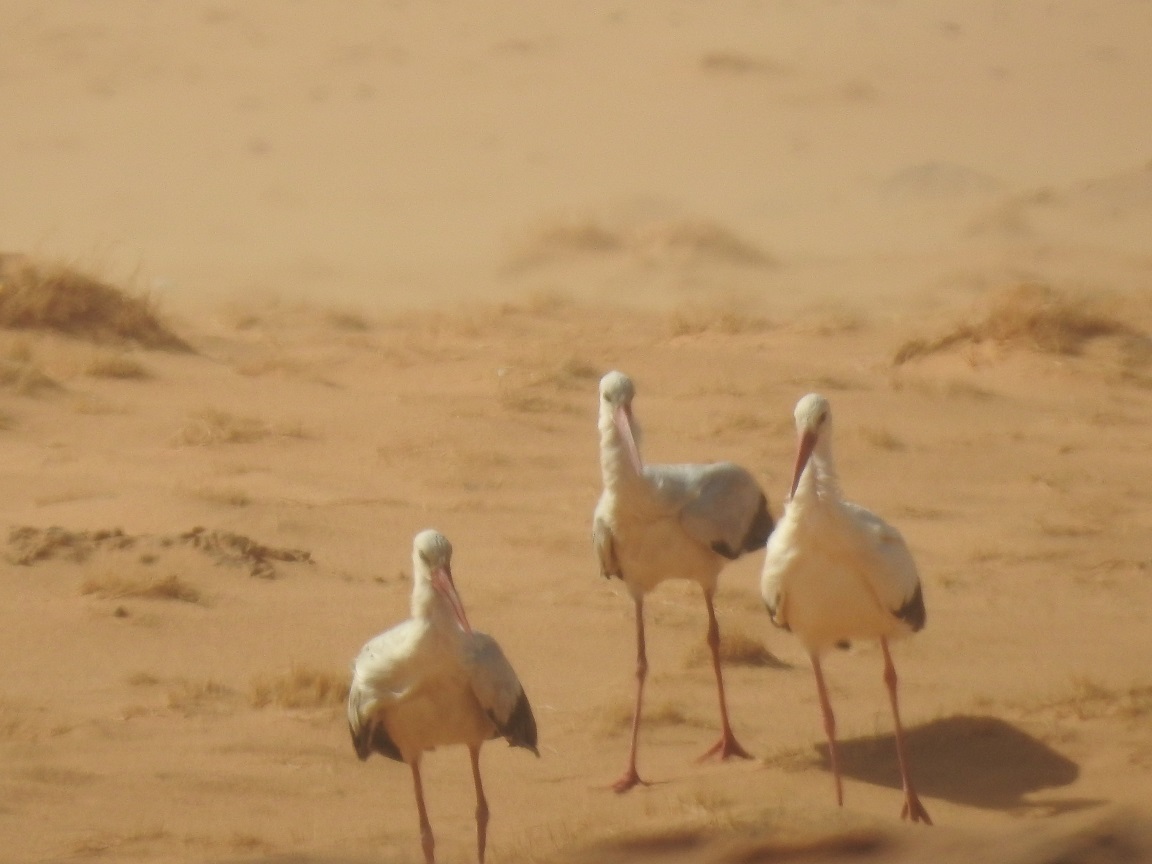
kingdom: Animalia
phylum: Chordata
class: Aves
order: Ciconiiformes
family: Ciconiidae
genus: Ciconia
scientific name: Ciconia ciconia
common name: White stork
